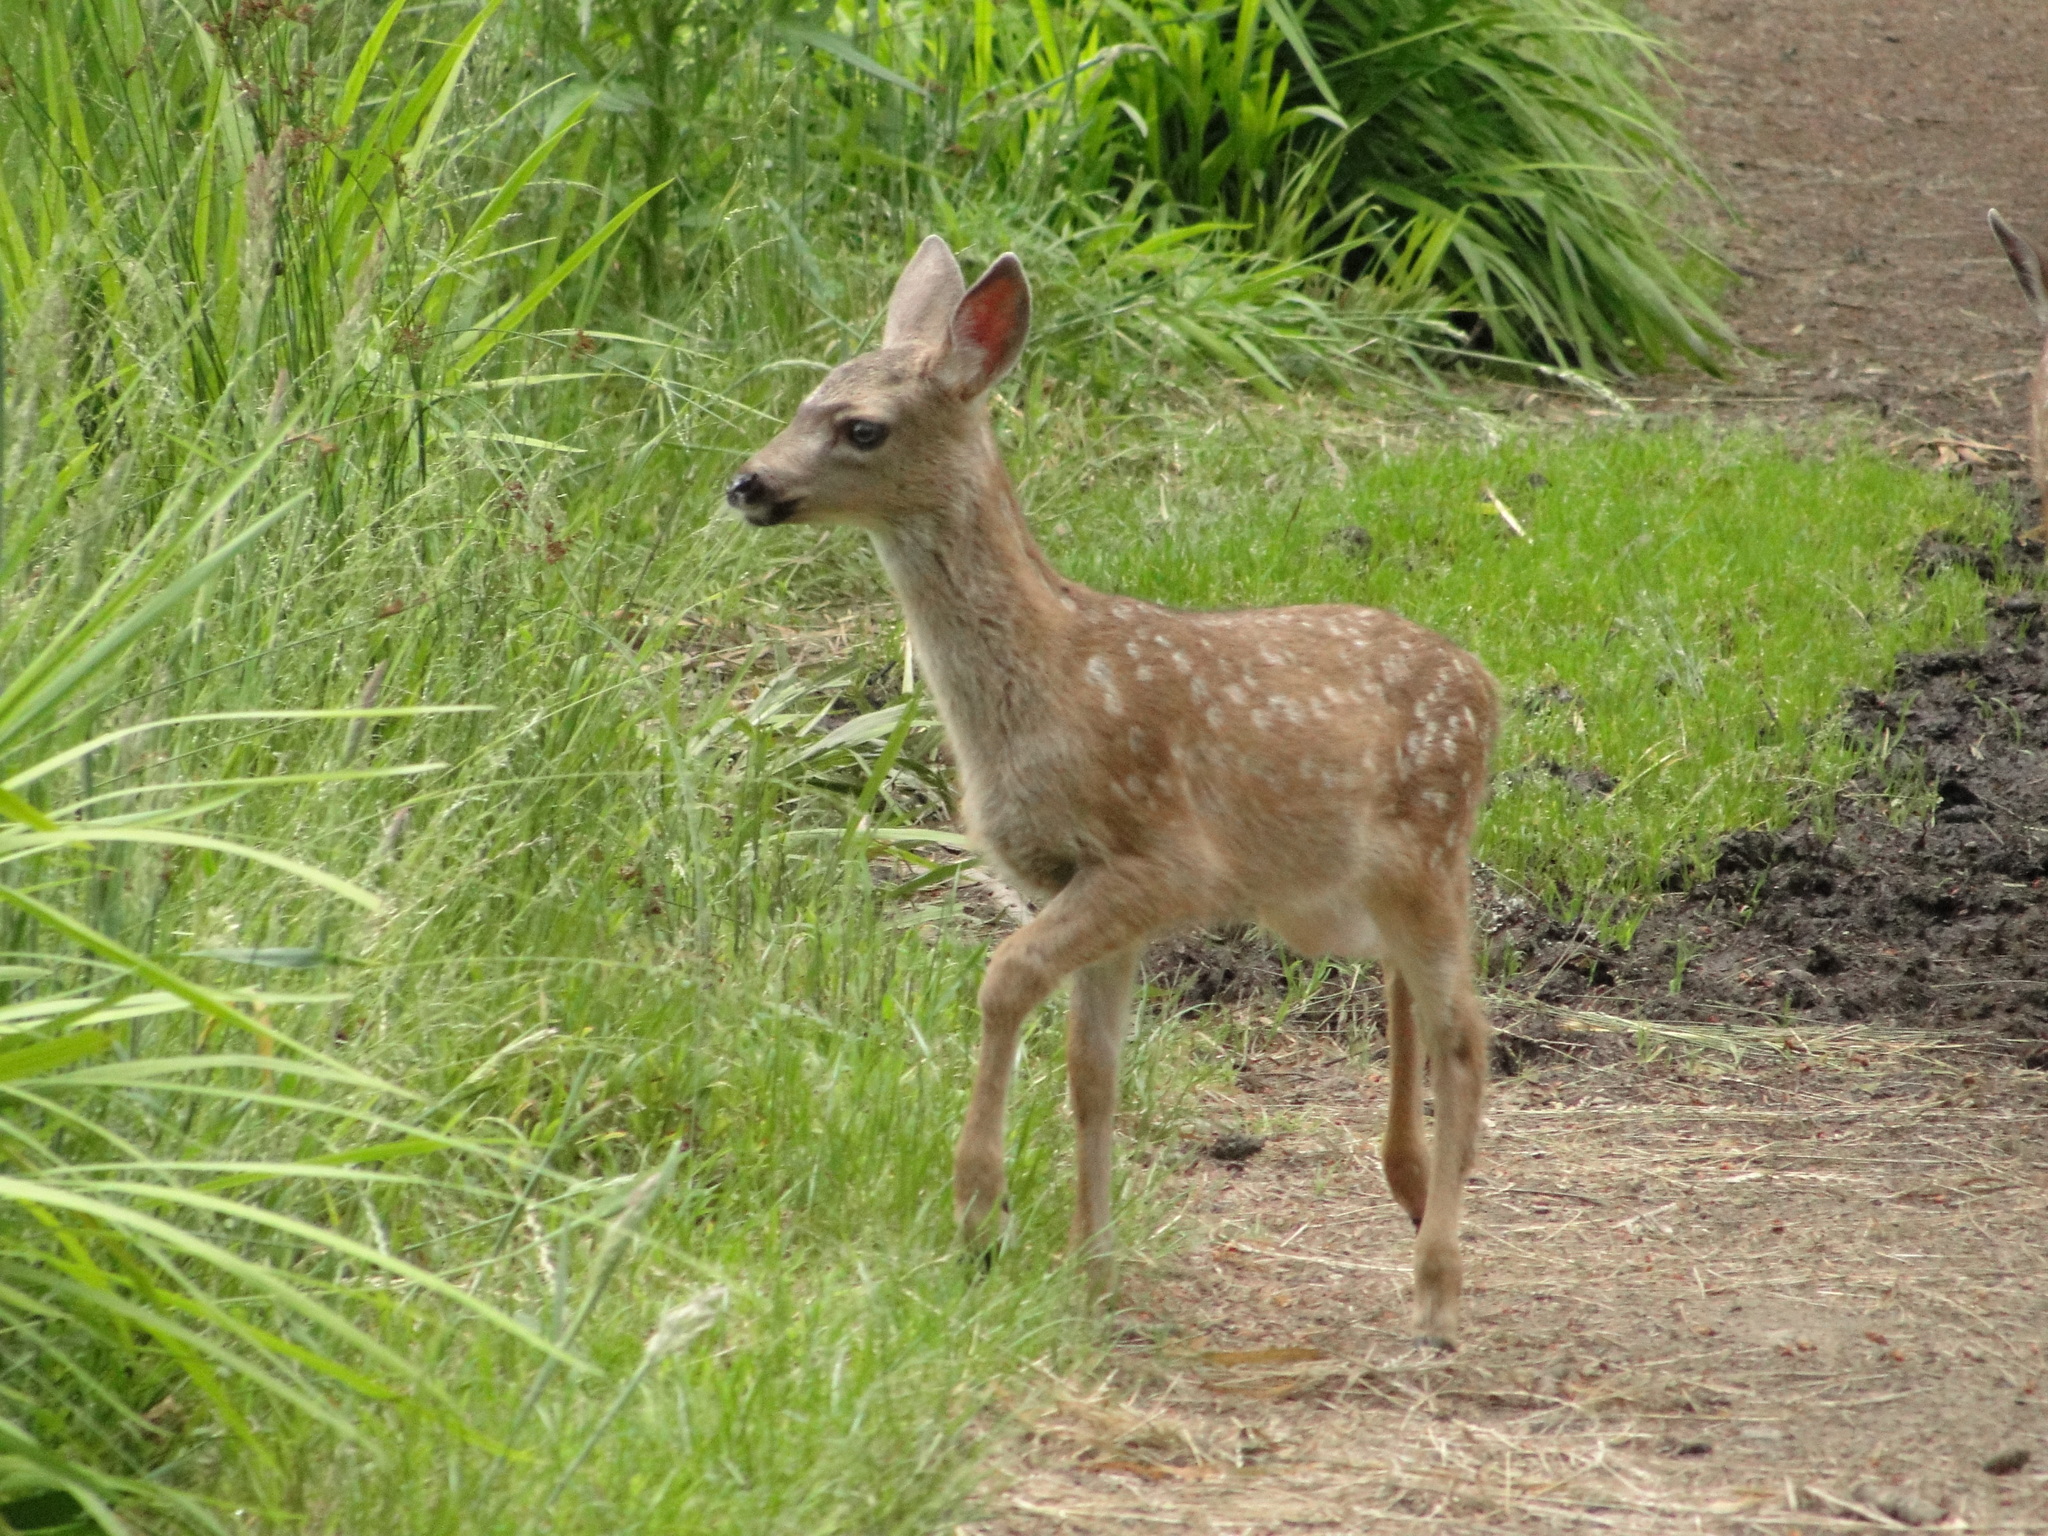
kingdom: Animalia
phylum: Chordata
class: Mammalia
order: Artiodactyla
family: Cervidae
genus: Odocoileus
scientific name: Odocoileus hemionus
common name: Mule deer
